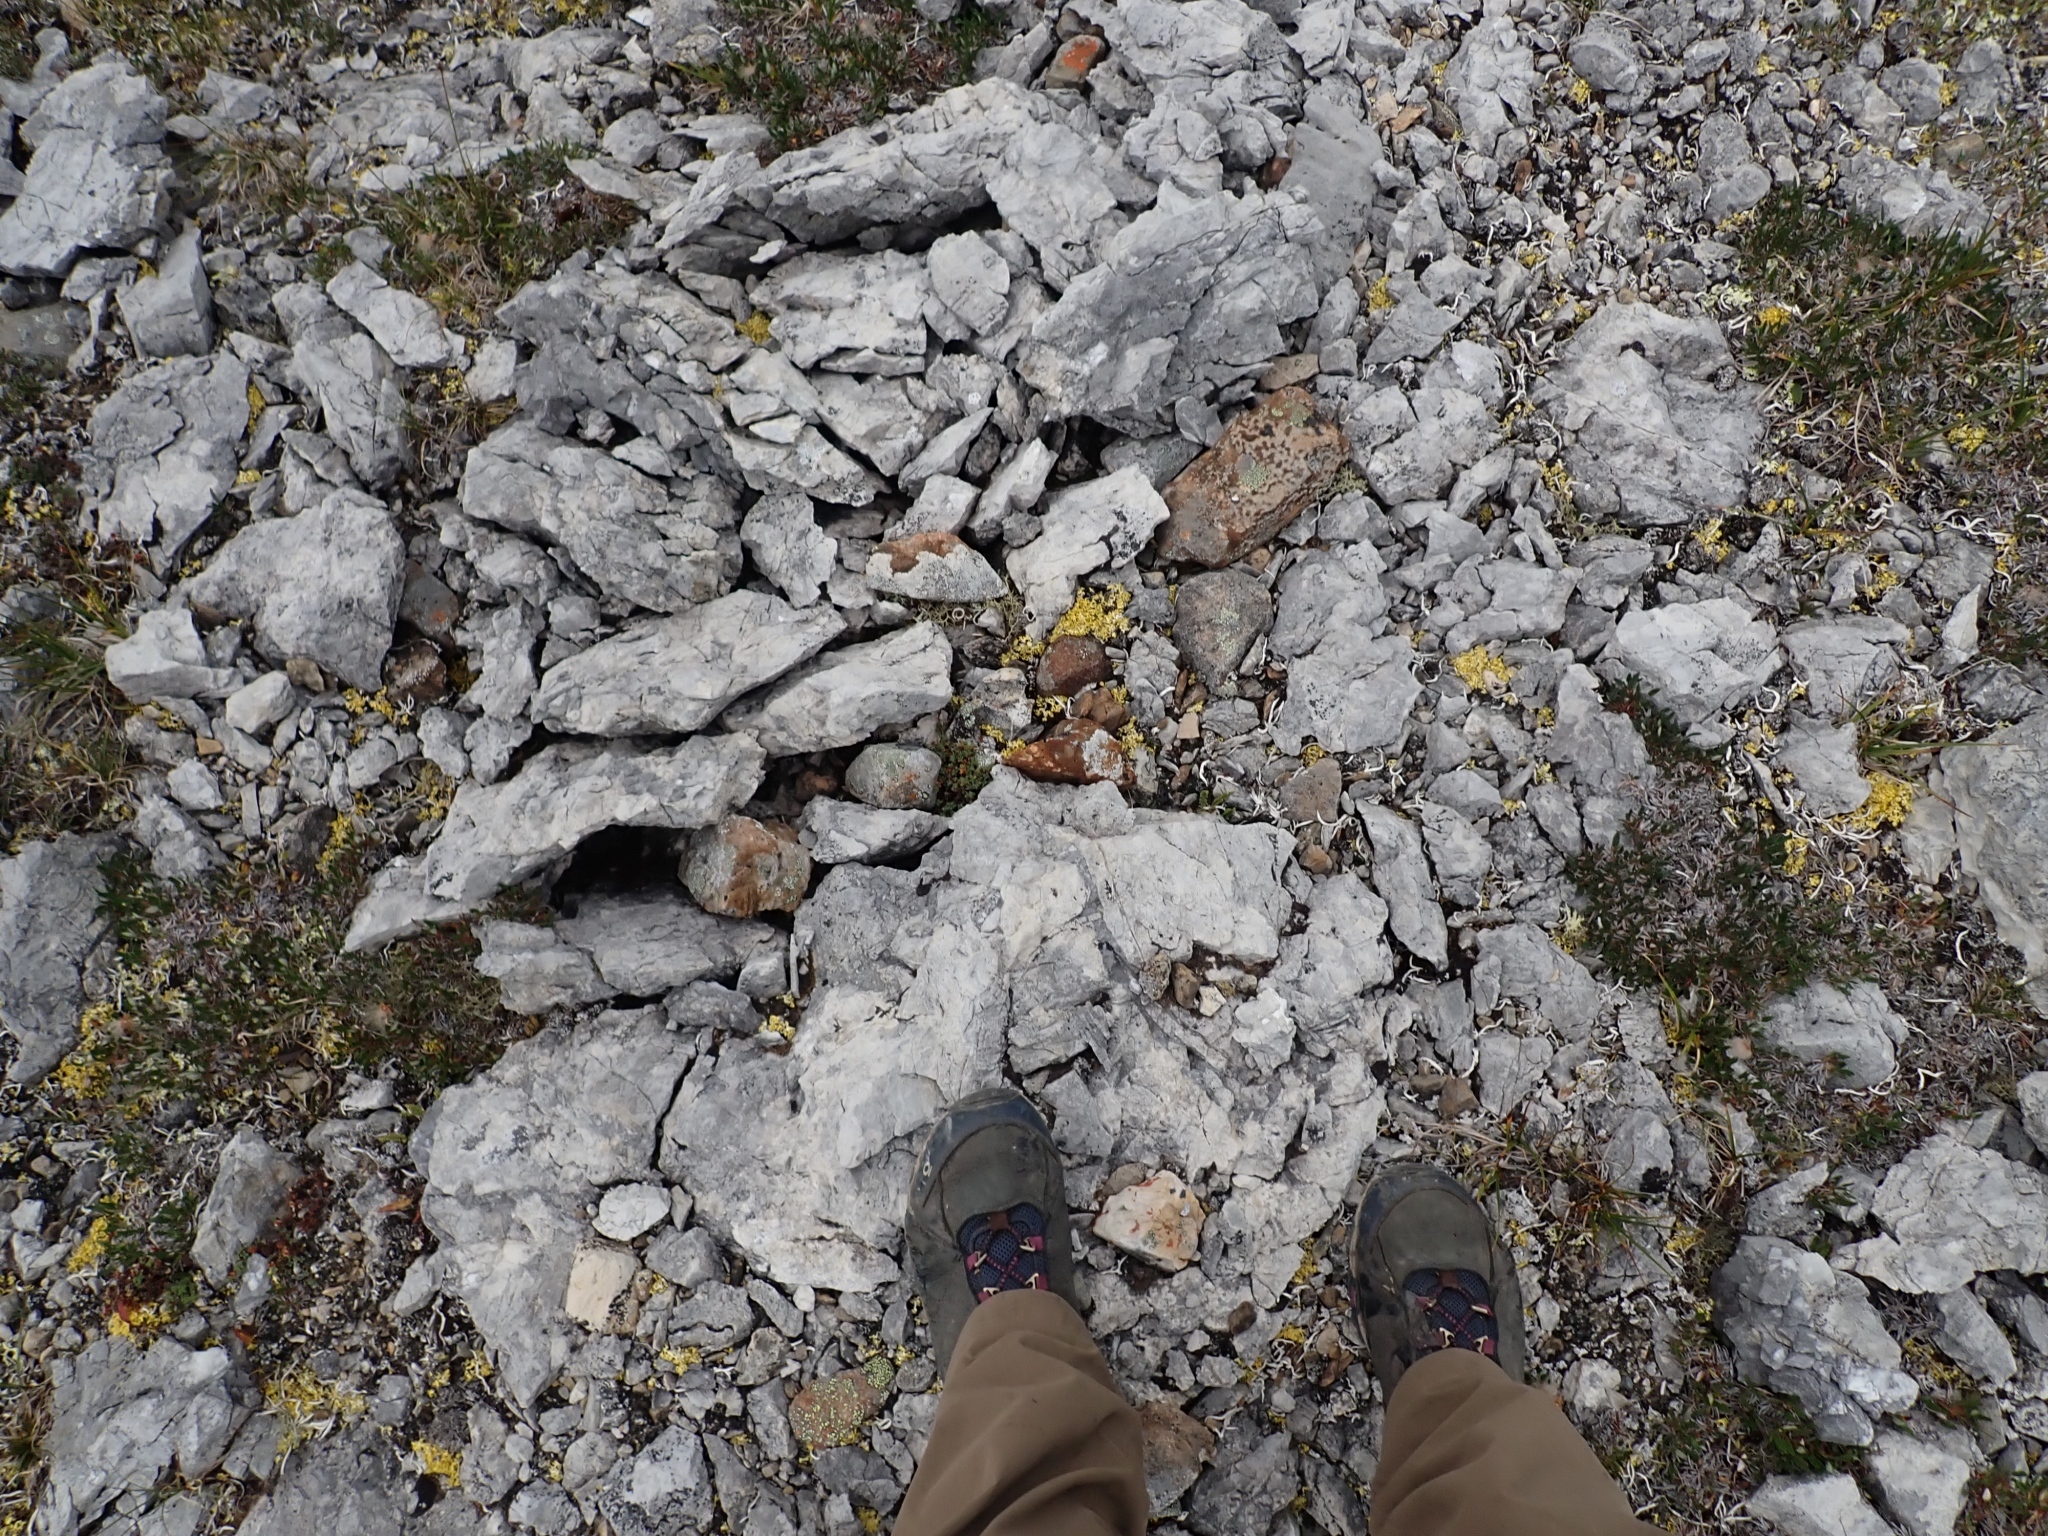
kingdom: Plantae
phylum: Tracheophyta
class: Magnoliopsida
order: Saxifragales
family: Saxifragaceae
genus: Saxifraga
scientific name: Saxifraga oppositifolia
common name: Purple saxifrage
